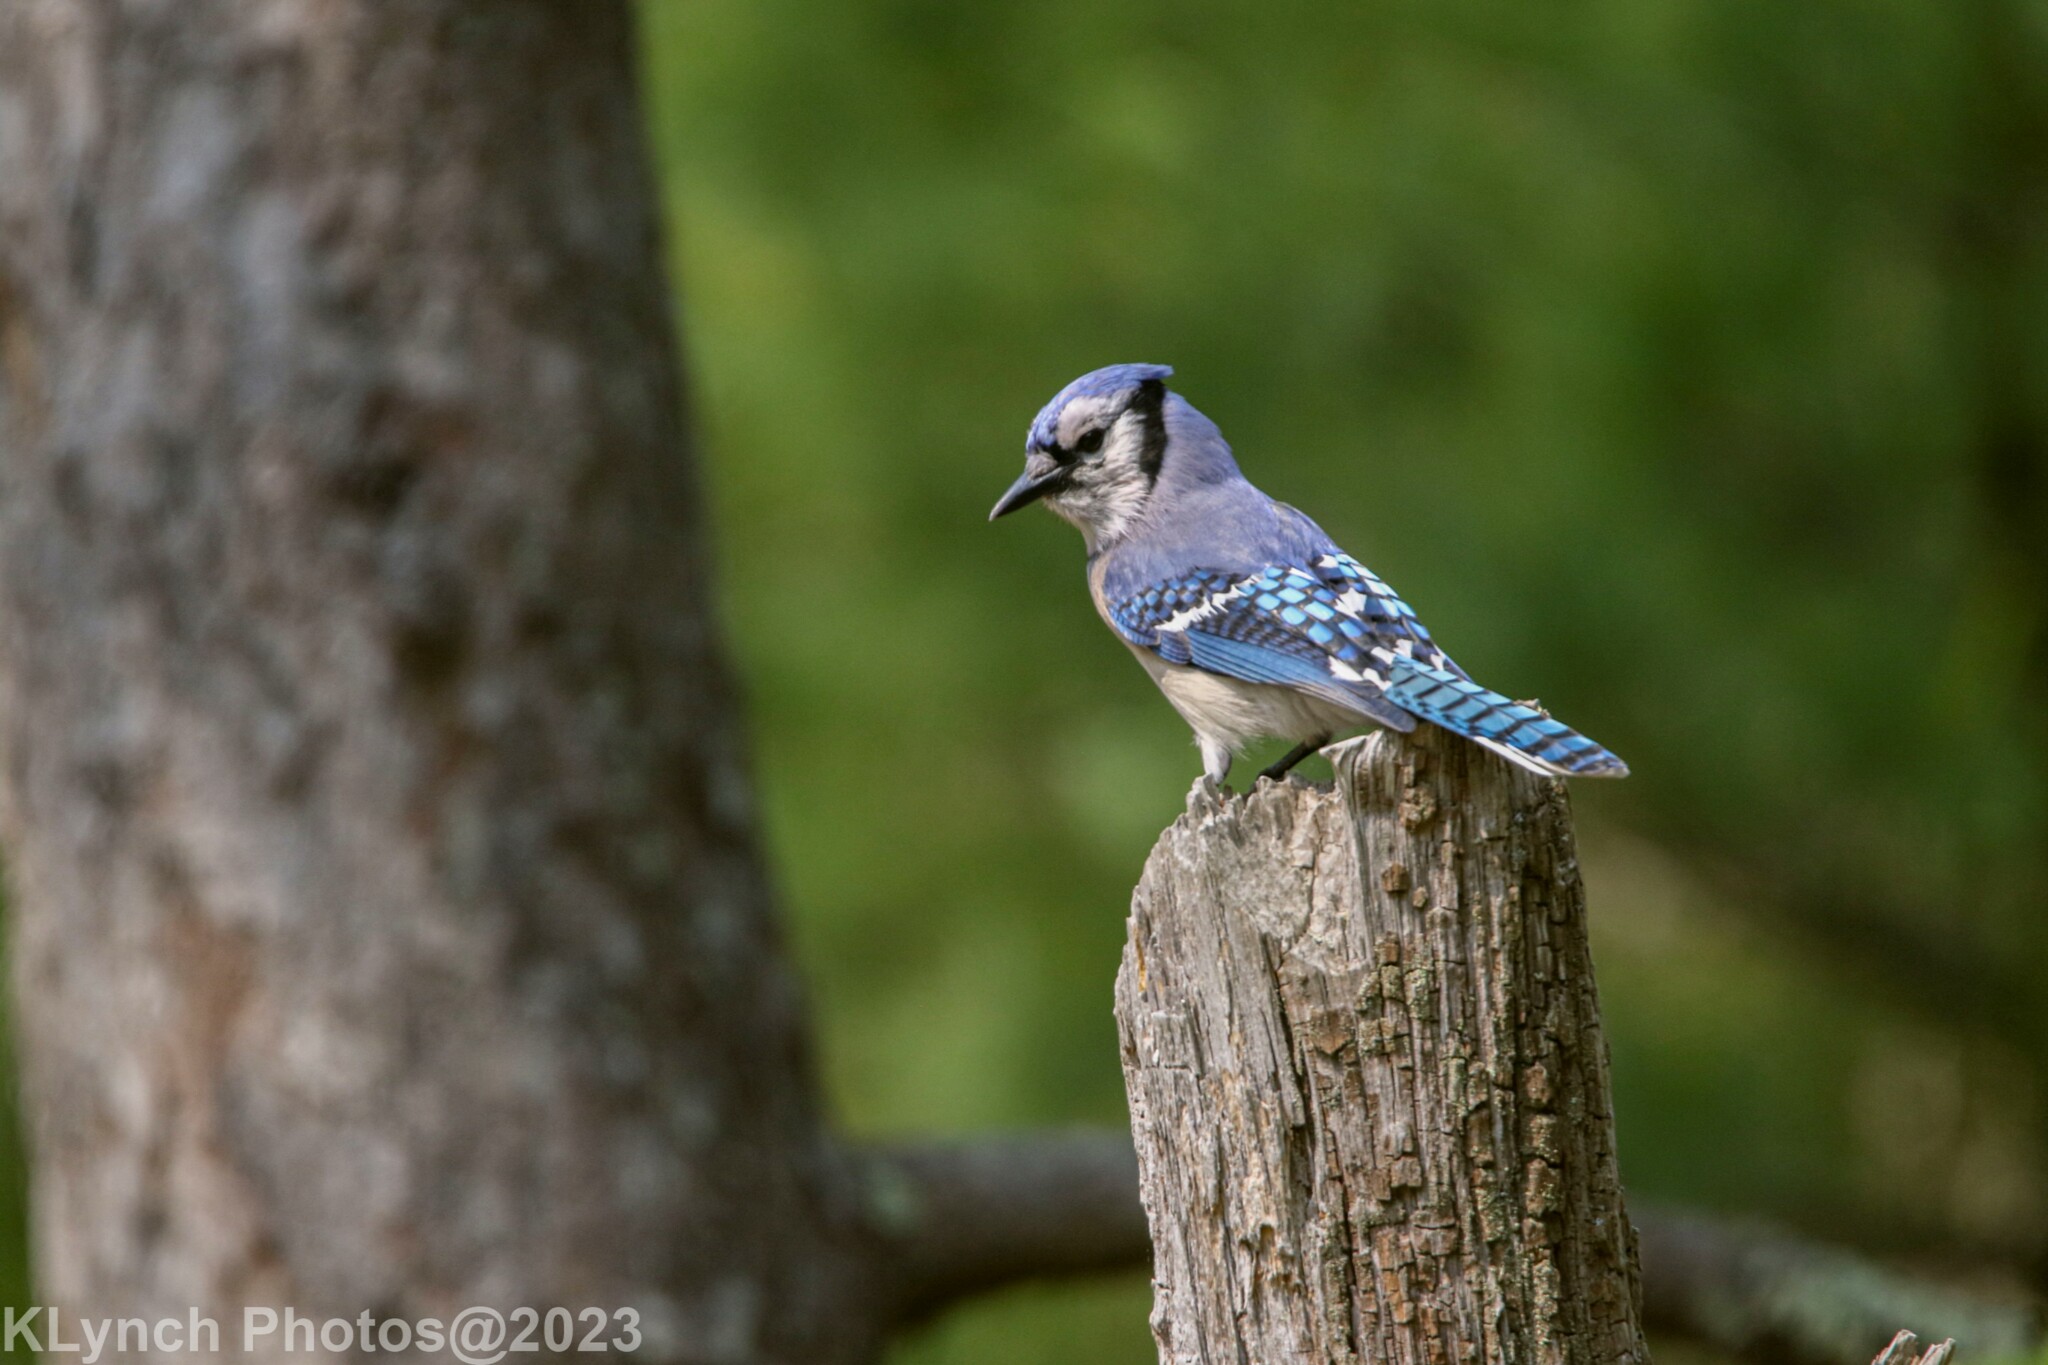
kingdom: Animalia
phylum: Chordata
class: Aves
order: Passeriformes
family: Corvidae
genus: Cyanocitta
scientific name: Cyanocitta cristata
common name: Blue jay
